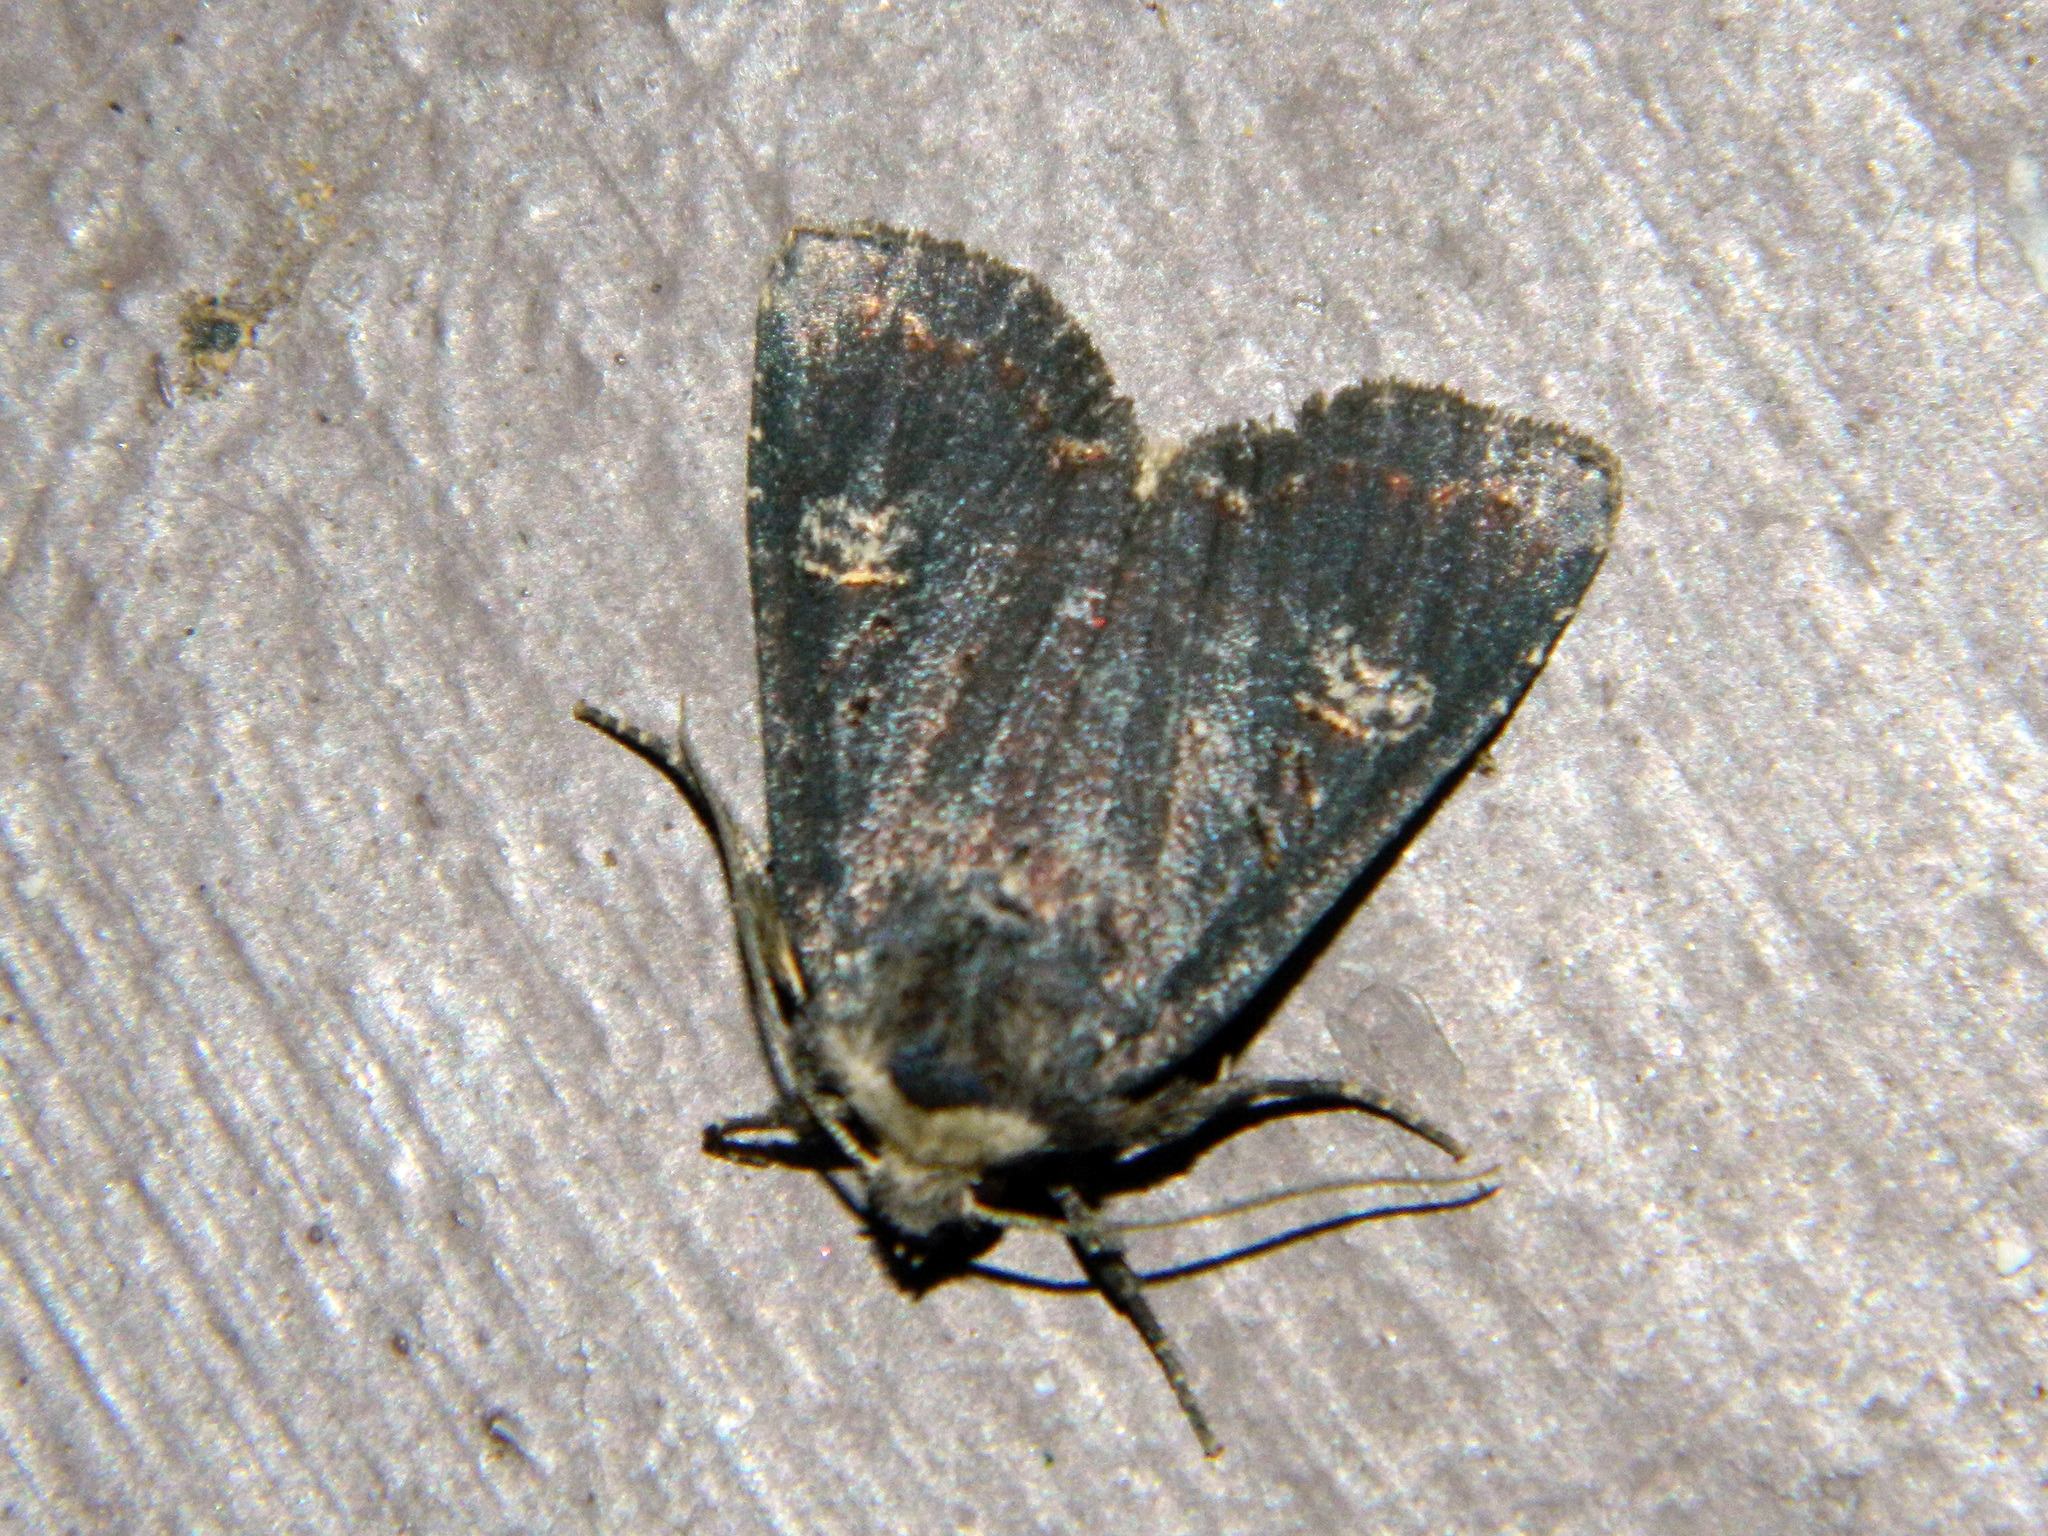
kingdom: Animalia
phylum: Arthropoda
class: Insecta
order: Lepidoptera
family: Noctuidae
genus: Hillia
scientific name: Hillia iris
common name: Iris rover moth
